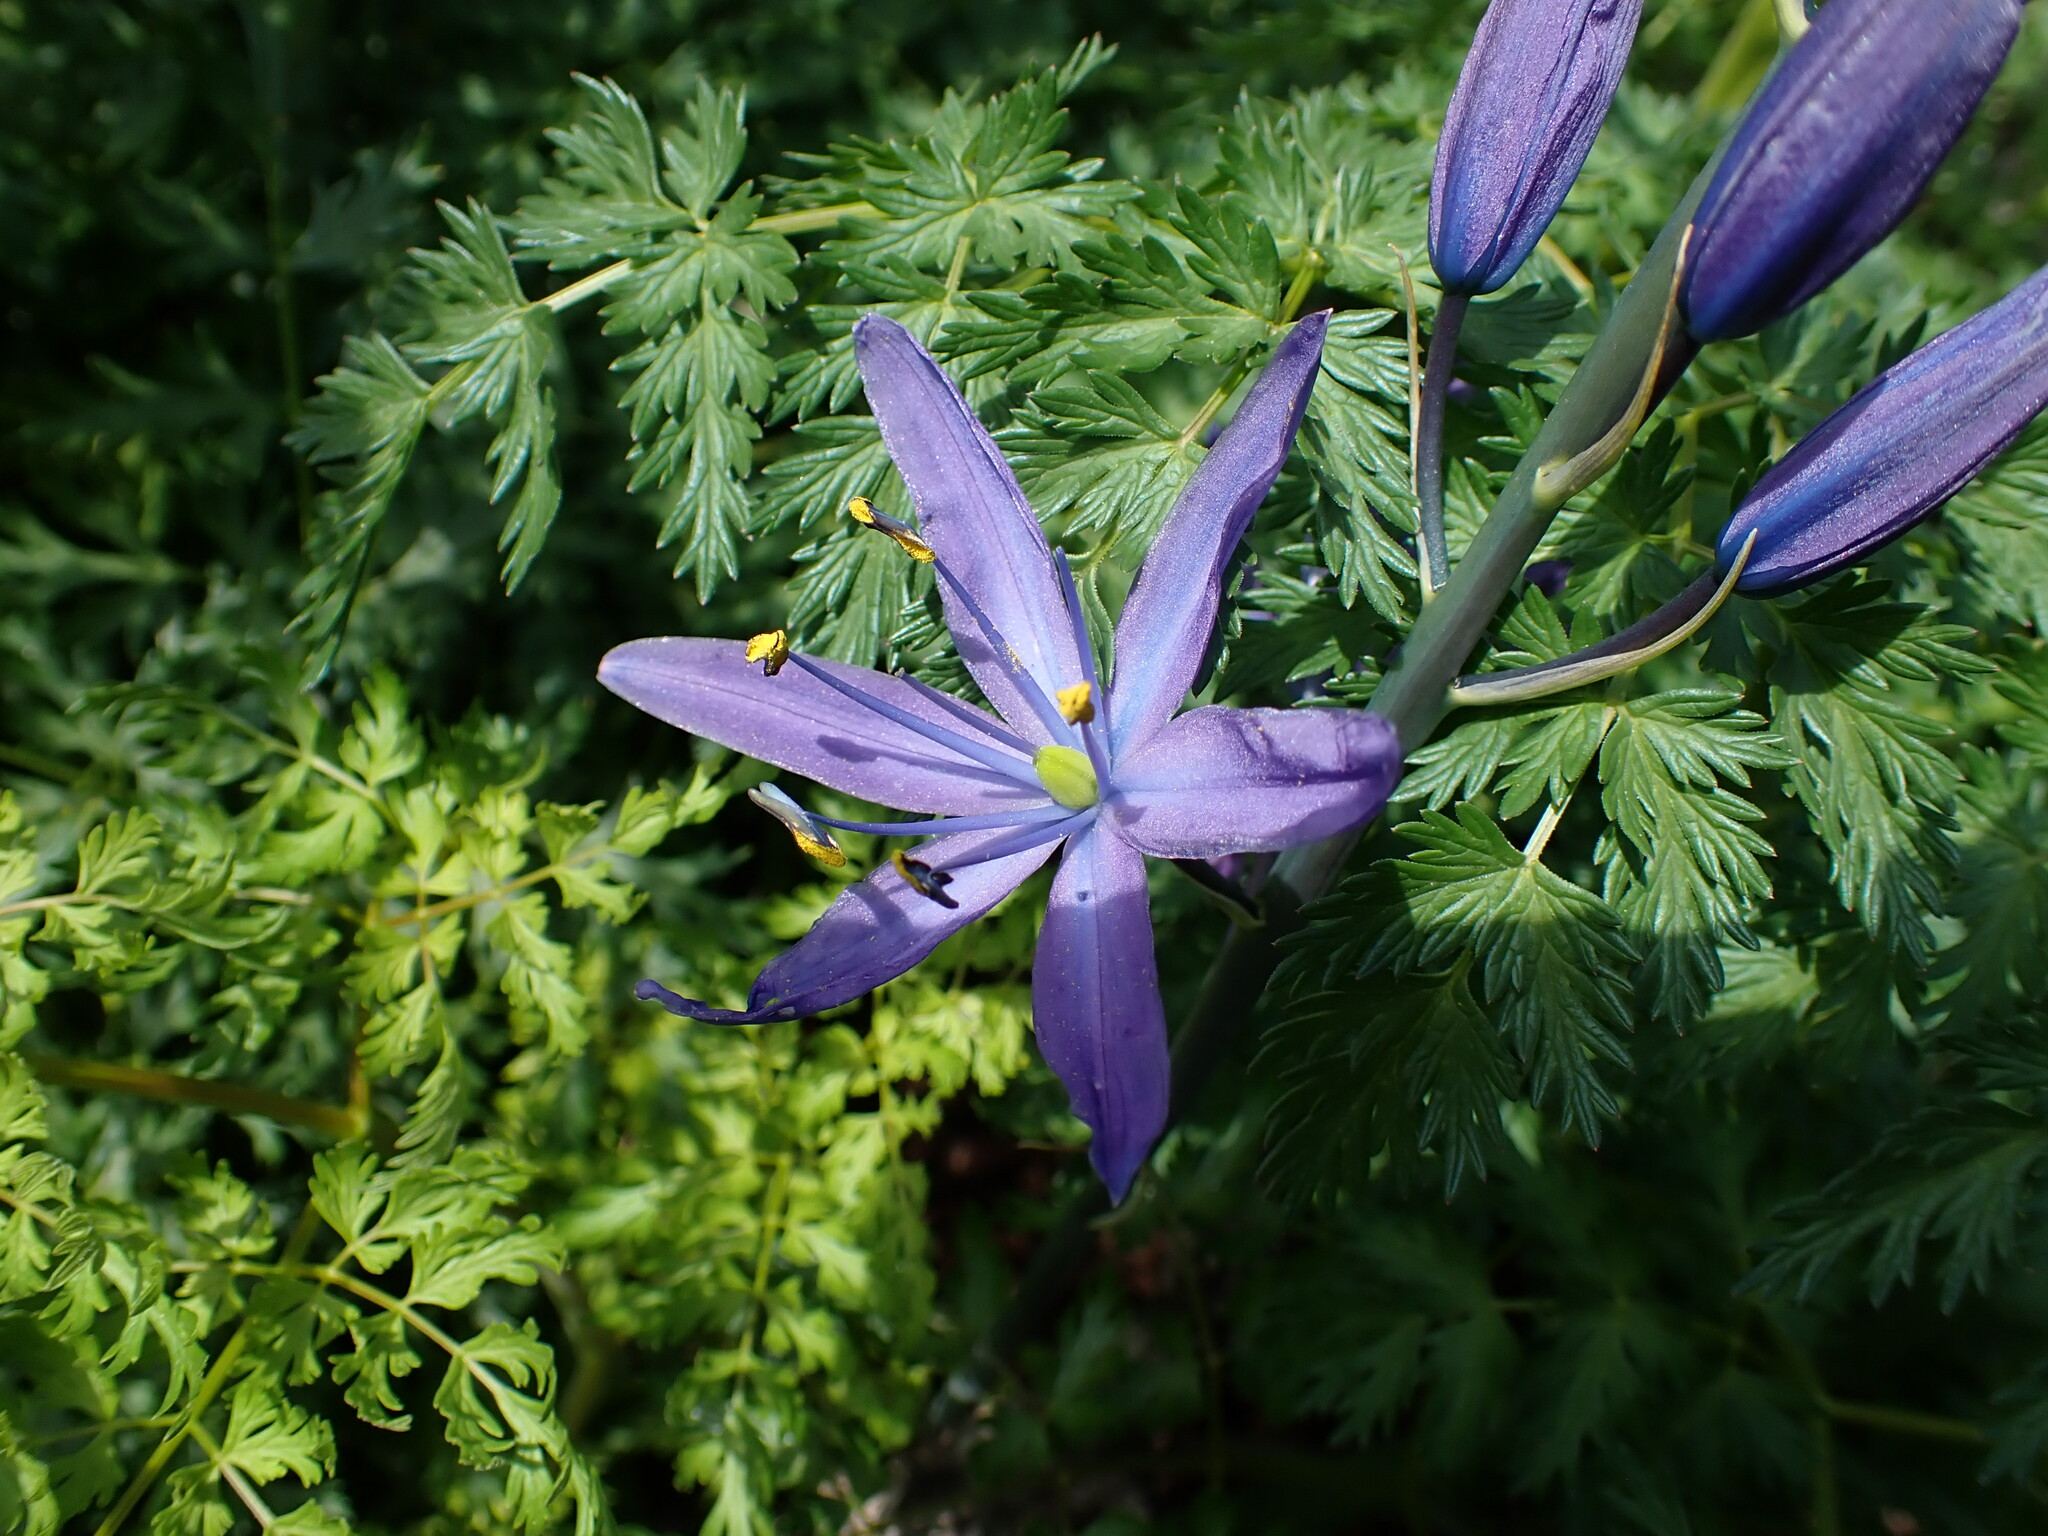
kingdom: Plantae
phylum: Tracheophyta
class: Liliopsida
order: Asparagales
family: Asparagaceae
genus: Camassia
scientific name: Camassia leichtlinii
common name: Leichtlin's camas
